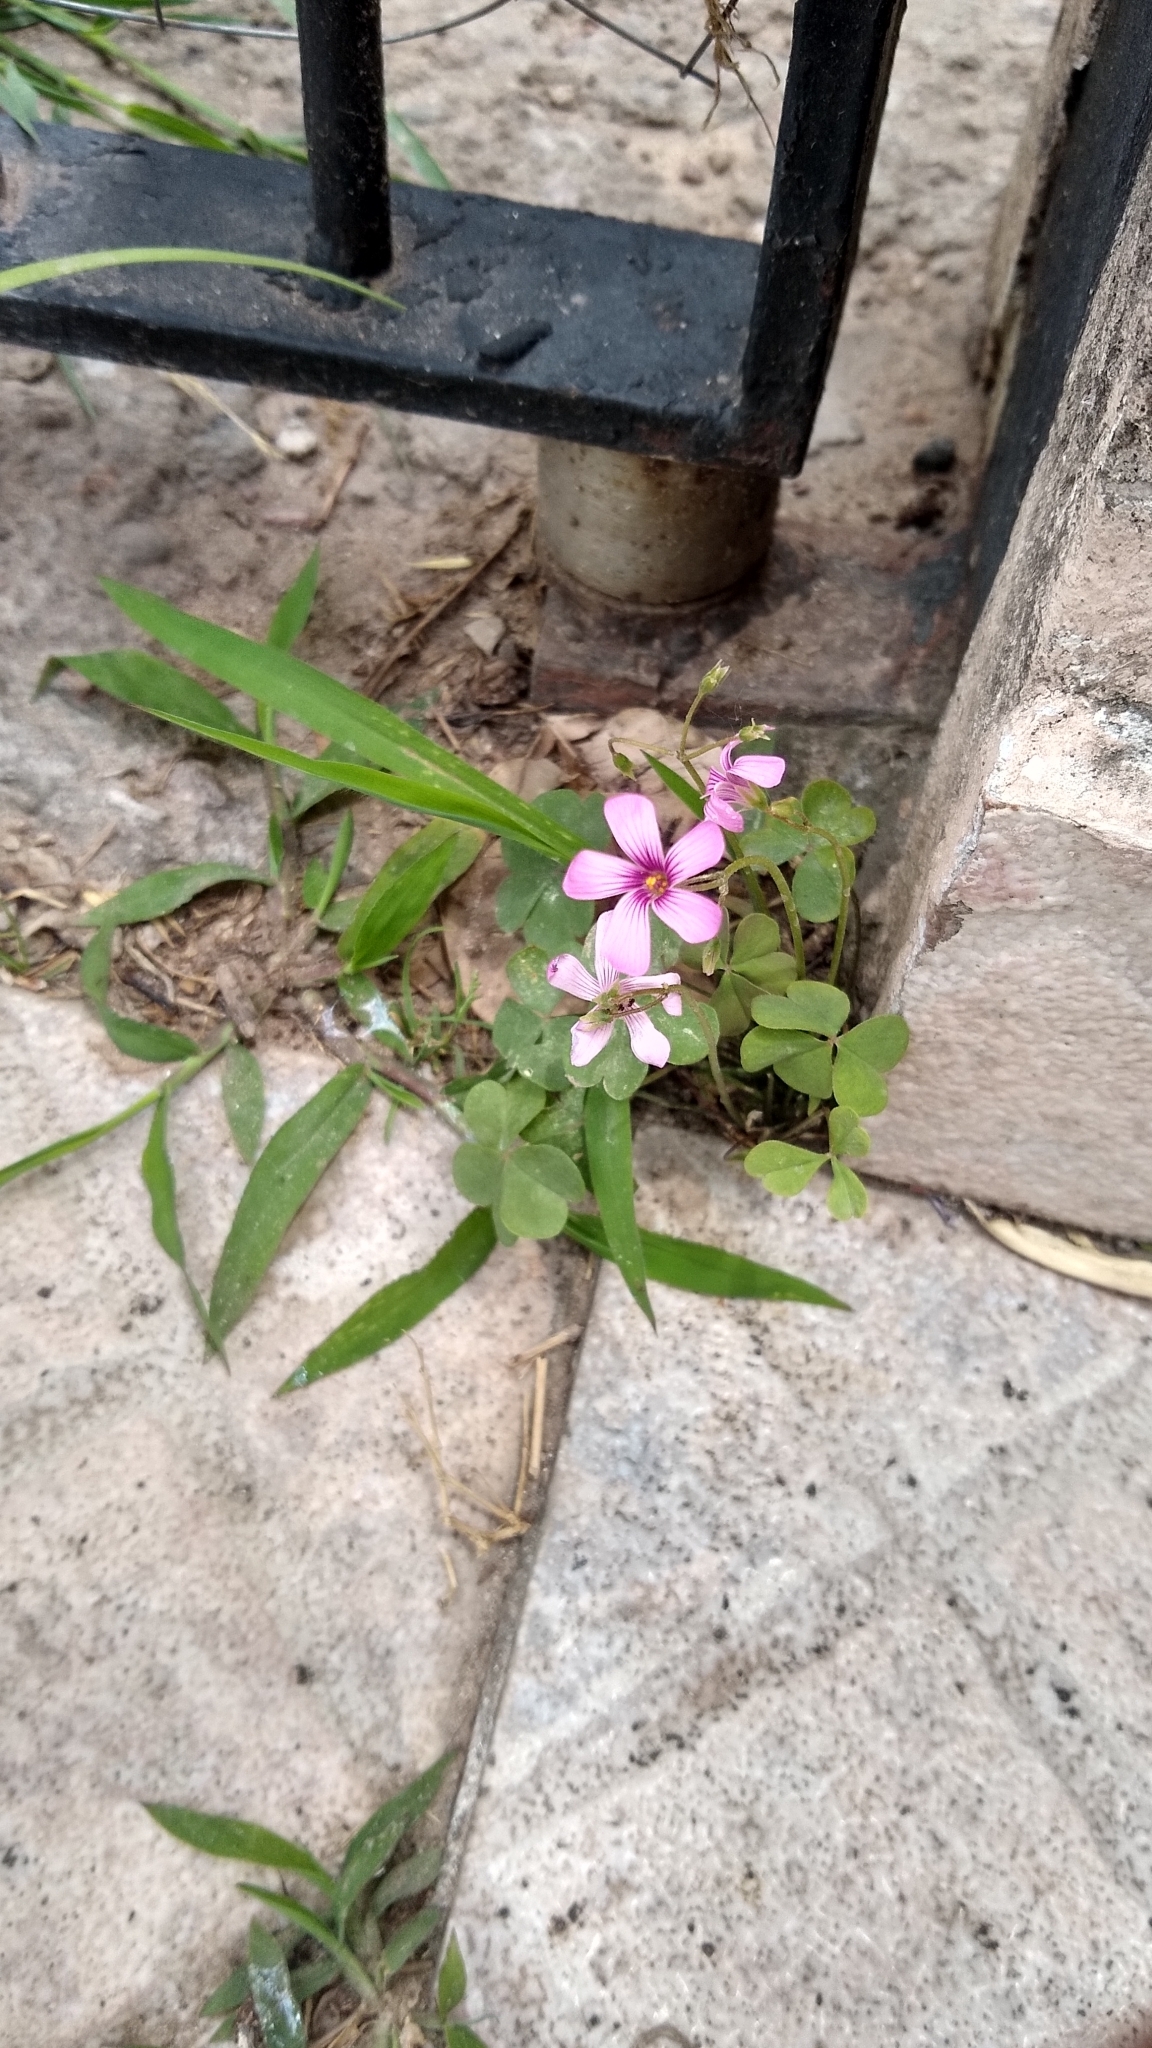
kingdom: Plantae
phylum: Tracheophyta
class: Magnoliopsida
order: Oxalidales
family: Oxalidaceae
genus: Oxalis
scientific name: Oxalis articulata
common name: Pink-sorrel
